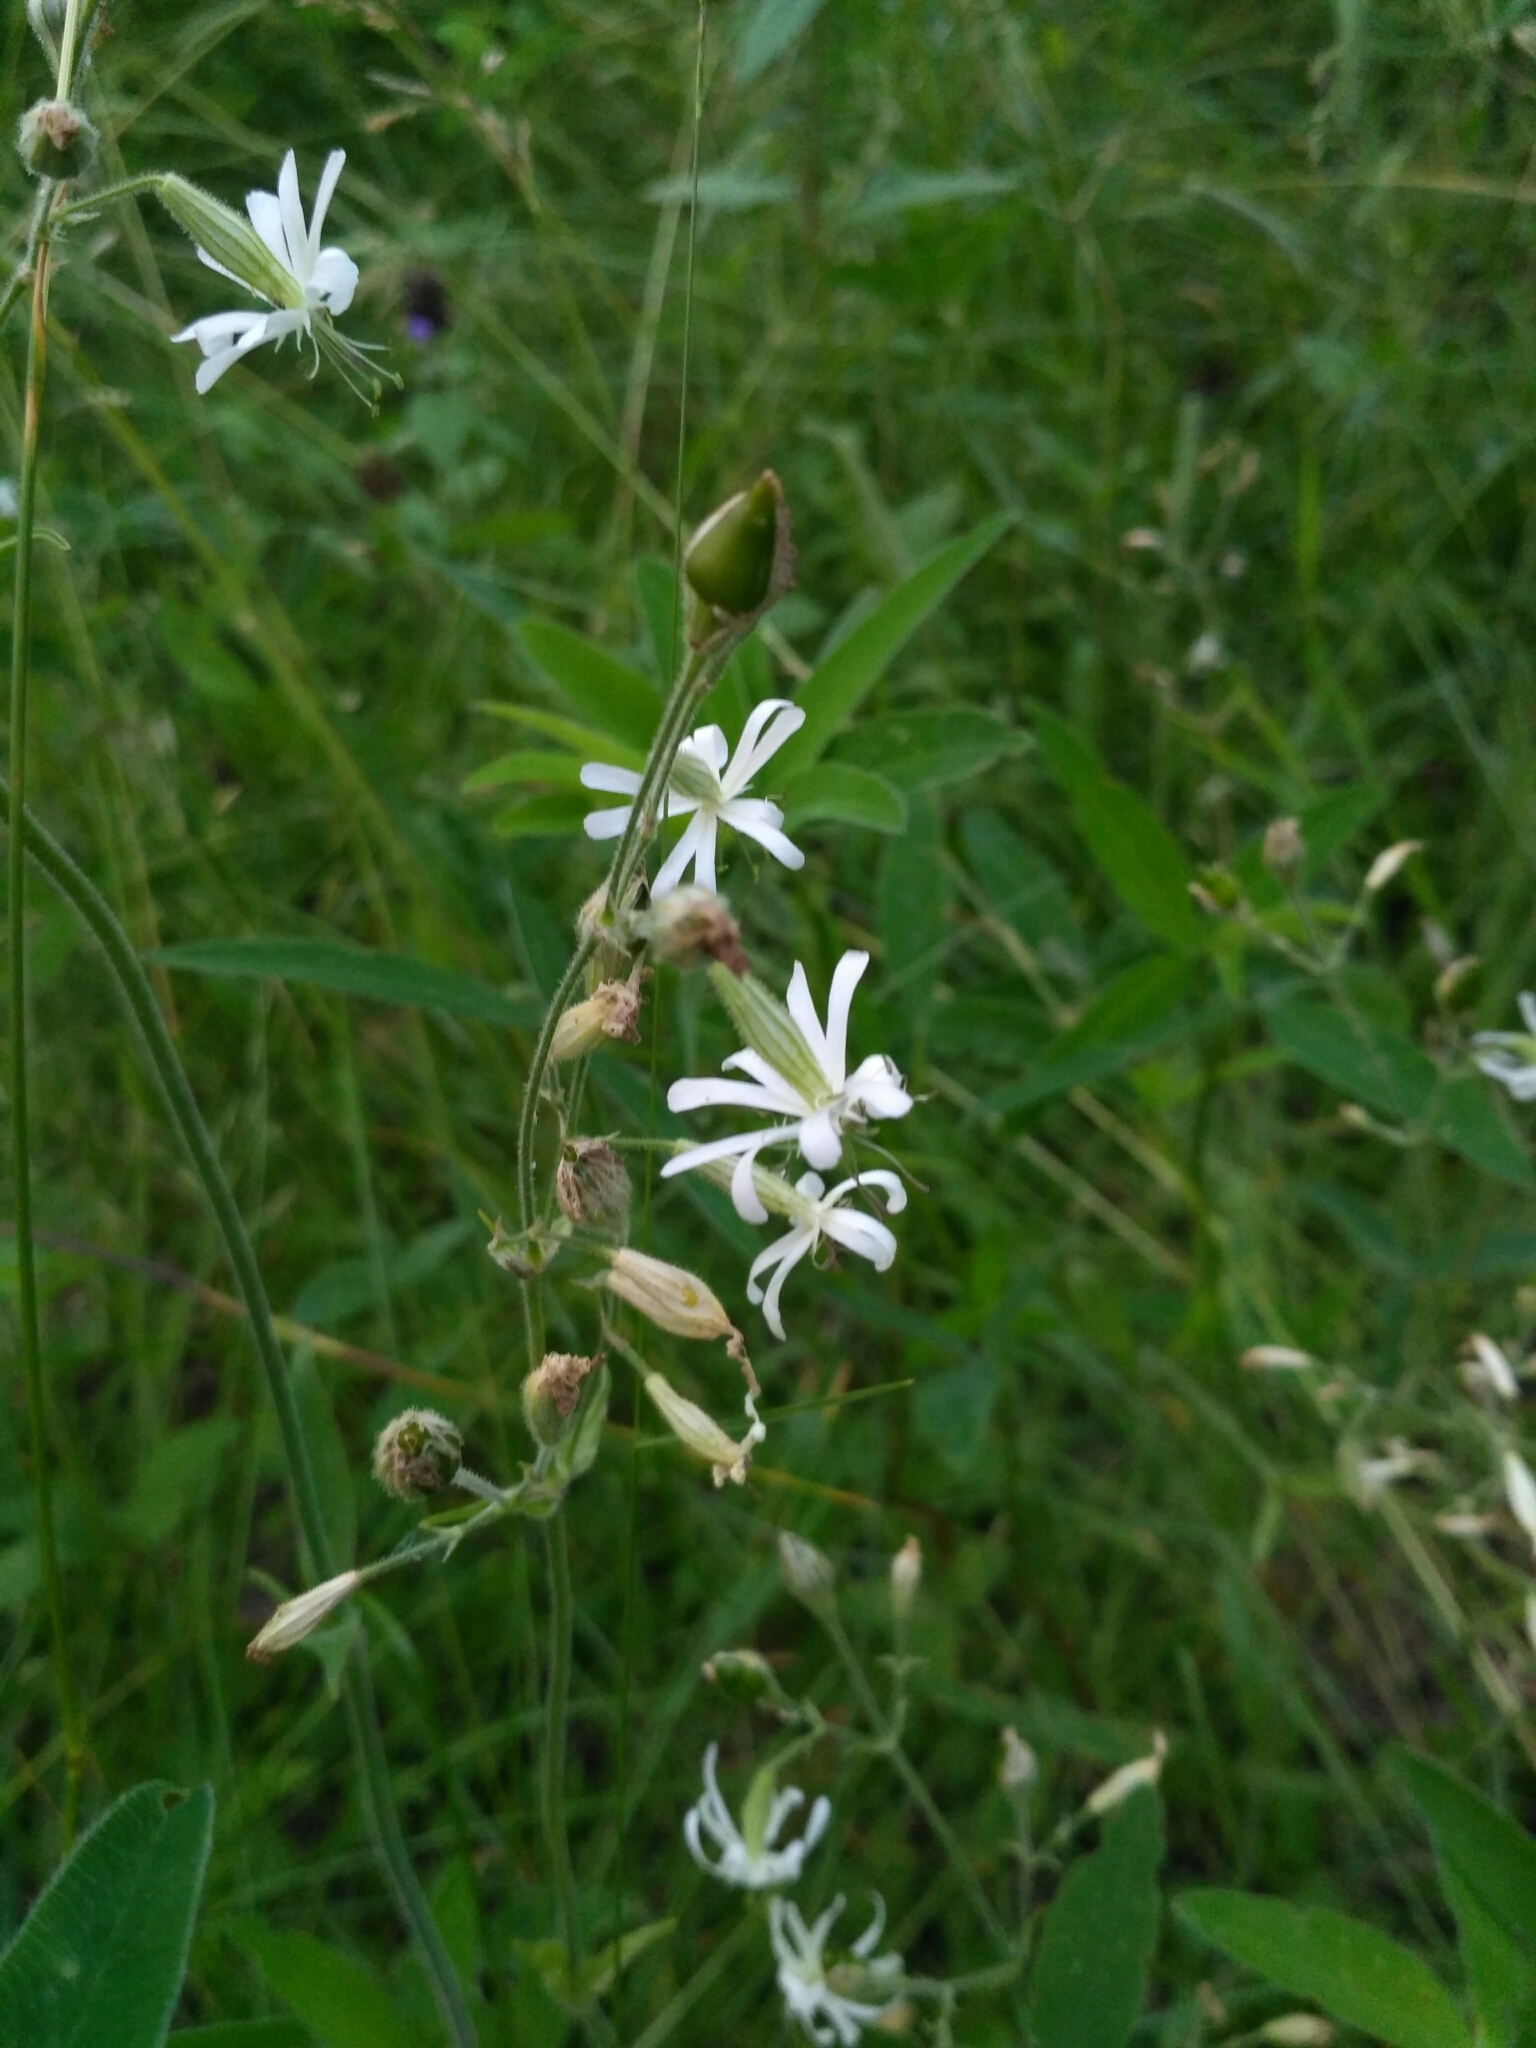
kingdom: Plantae
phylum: Tracheophyta
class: Magnoliopsida
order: Caryophyllales
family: Caryophyllaceae
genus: Silene
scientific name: Silene nutans
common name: Nottingham catchfly
